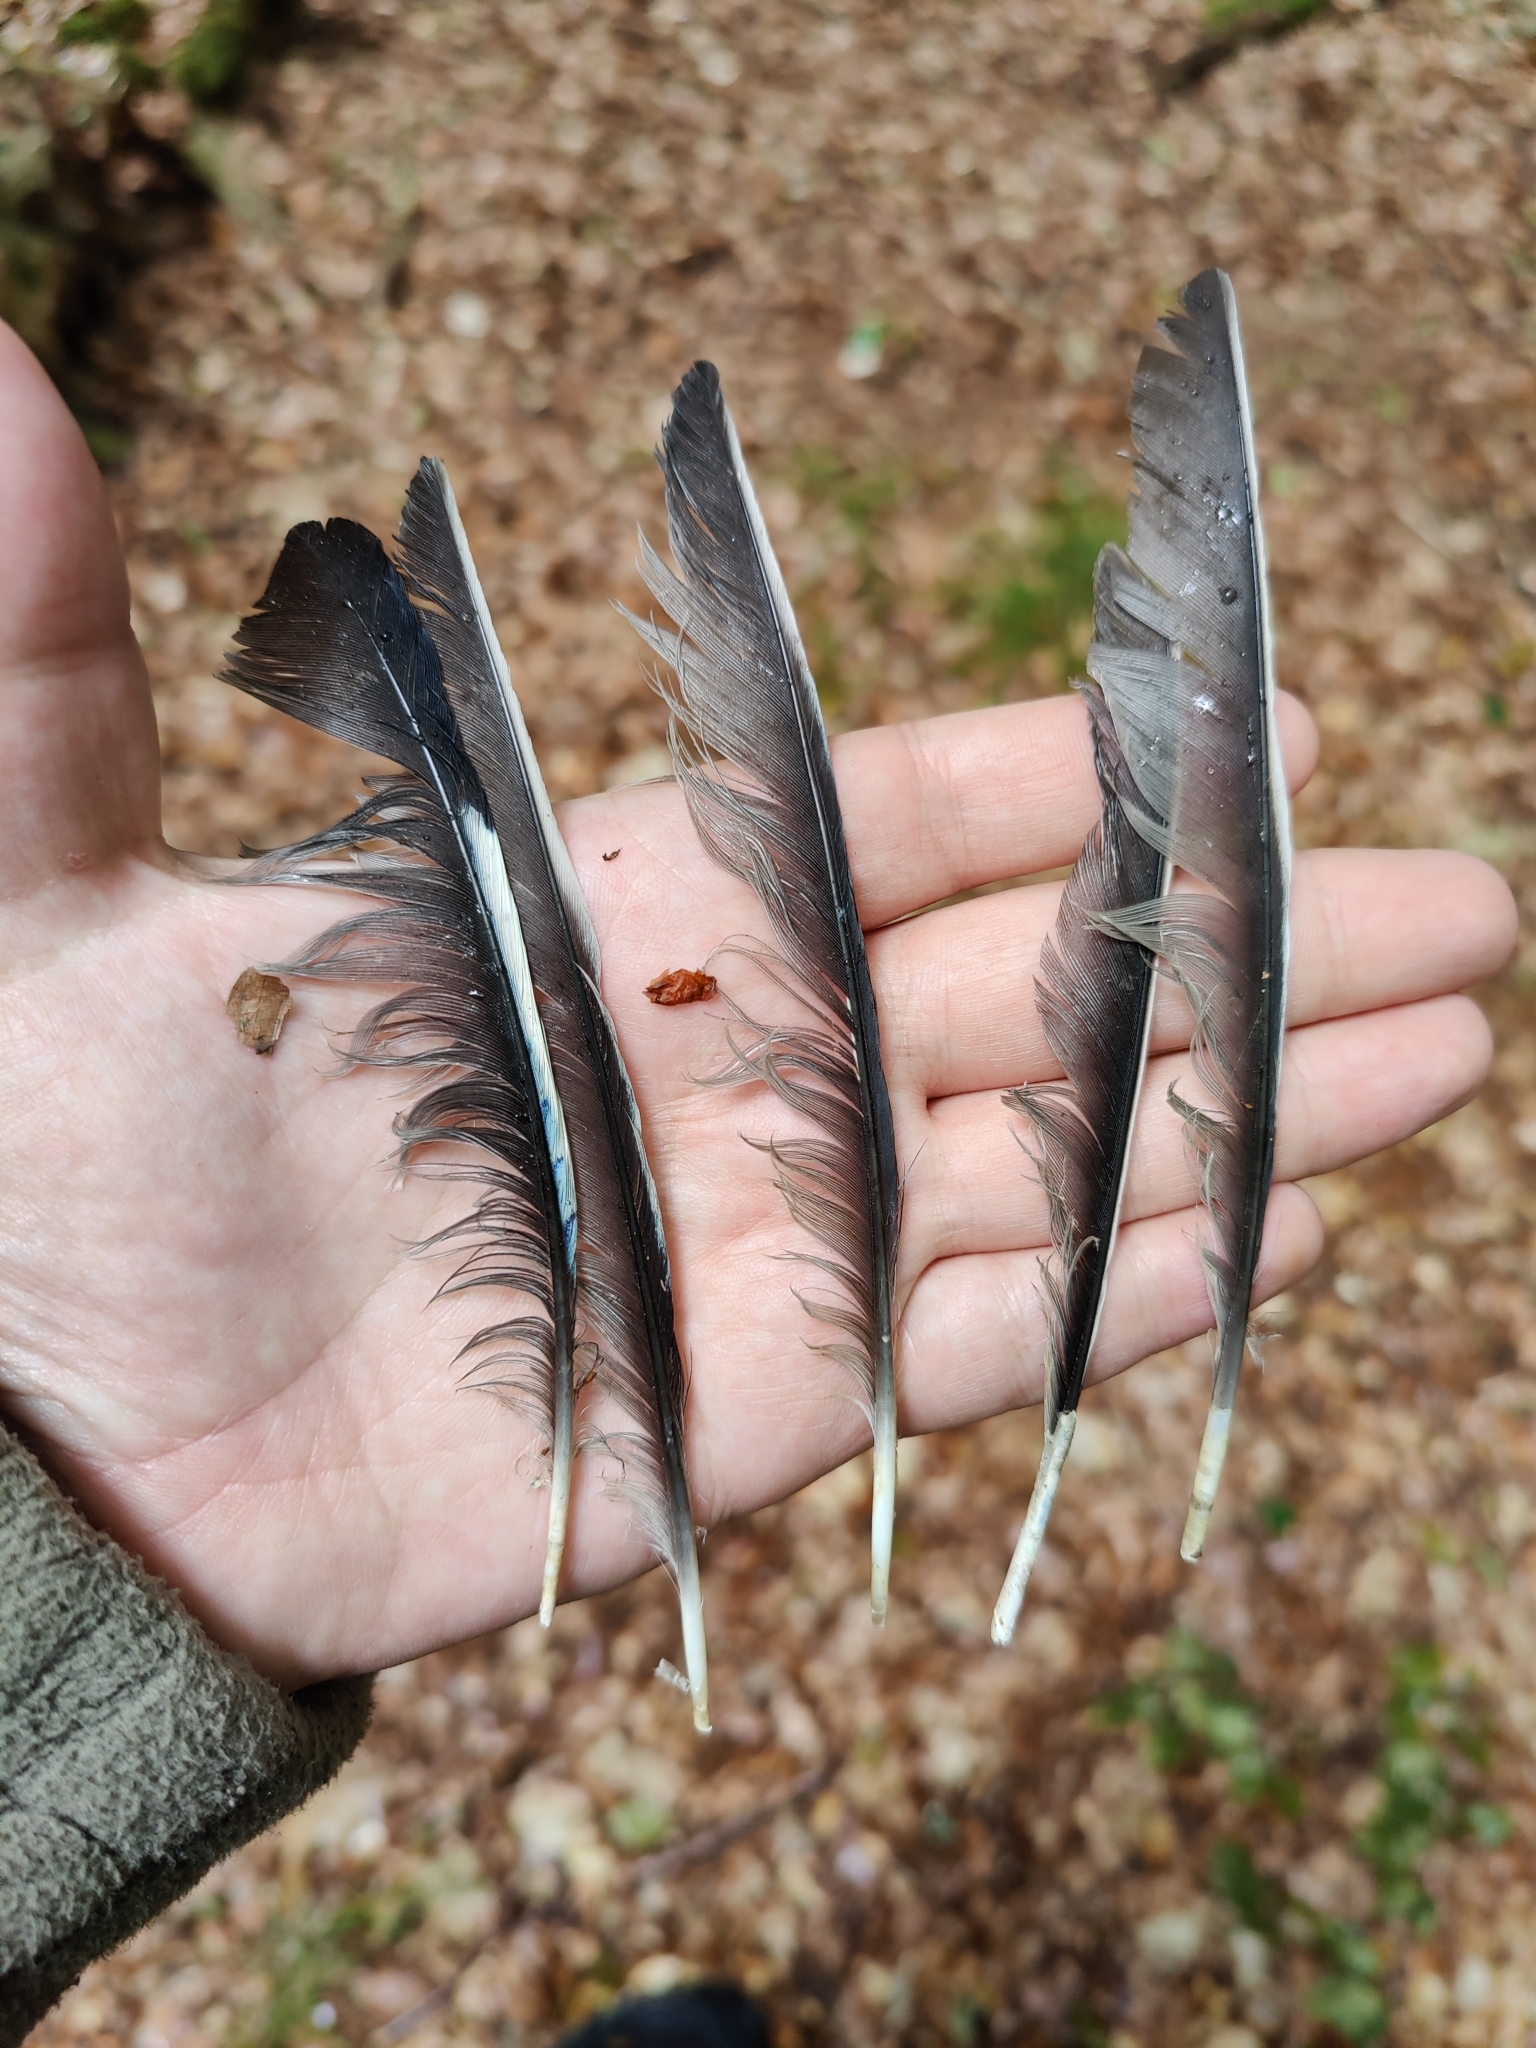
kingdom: Animalia
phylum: Chordata
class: Aves
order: Passeriformes
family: Corvidae
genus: Garrulus
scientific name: Garrulus glandarius
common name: Eurasian jay
